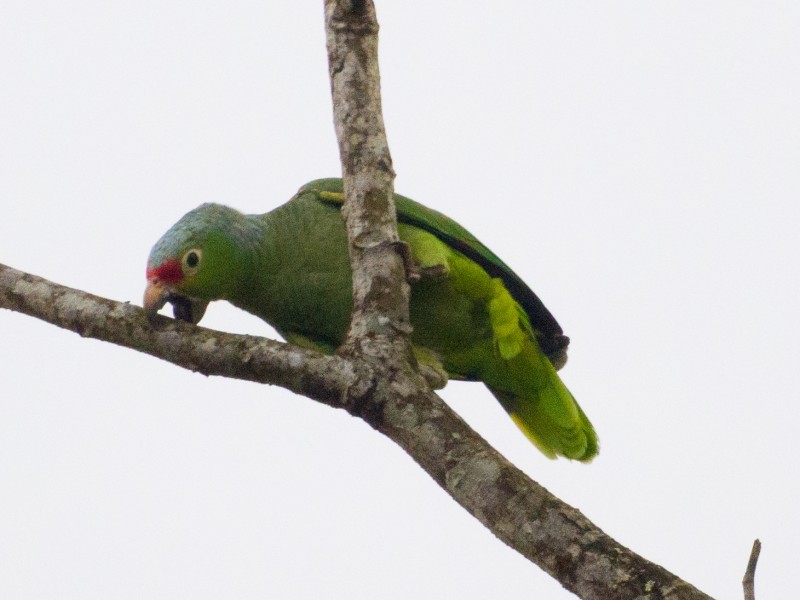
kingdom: Animalia
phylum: Chordata
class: Aves
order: Psittaciformes
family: Psittacidae
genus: Amazona
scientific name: Amazona autumnalis
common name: Red-lored amazon
